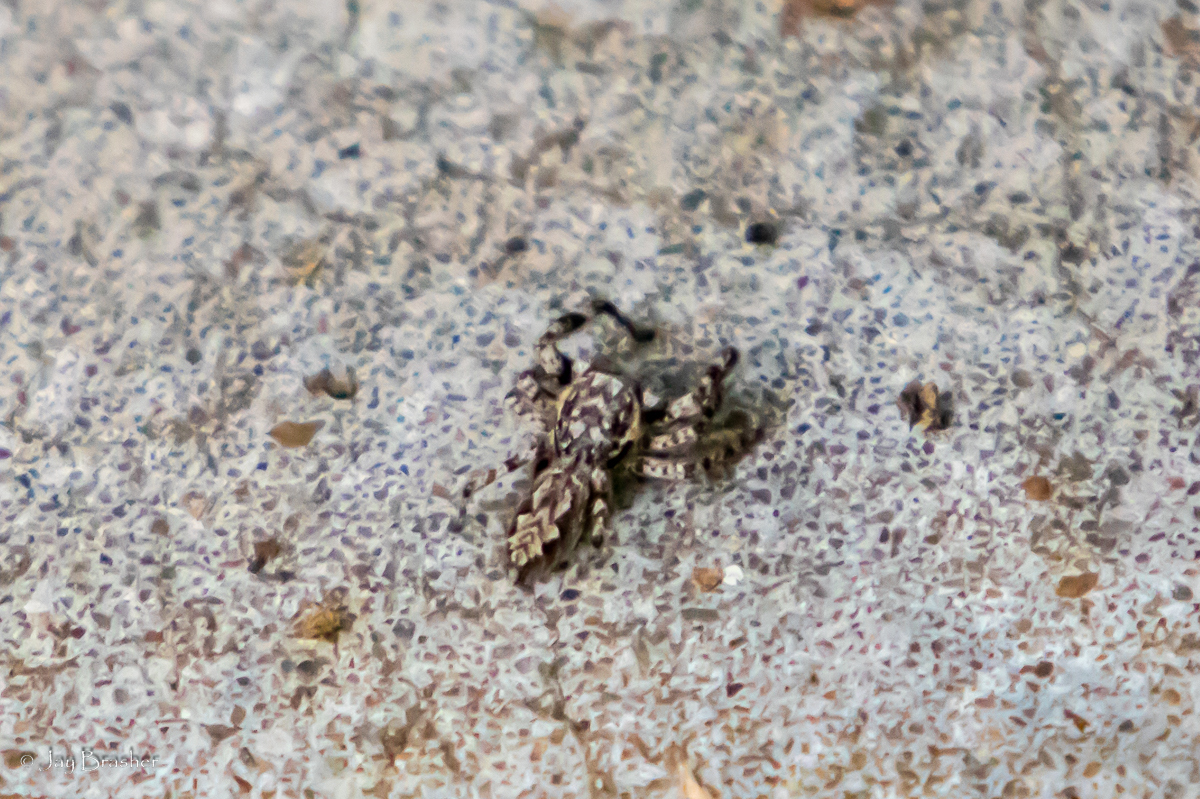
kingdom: Animalia
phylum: Arthropoda
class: Arachnida
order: Araneae
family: Salticidae
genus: Platycryptus
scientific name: Platycryptus undatus
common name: Tan jumping spider
